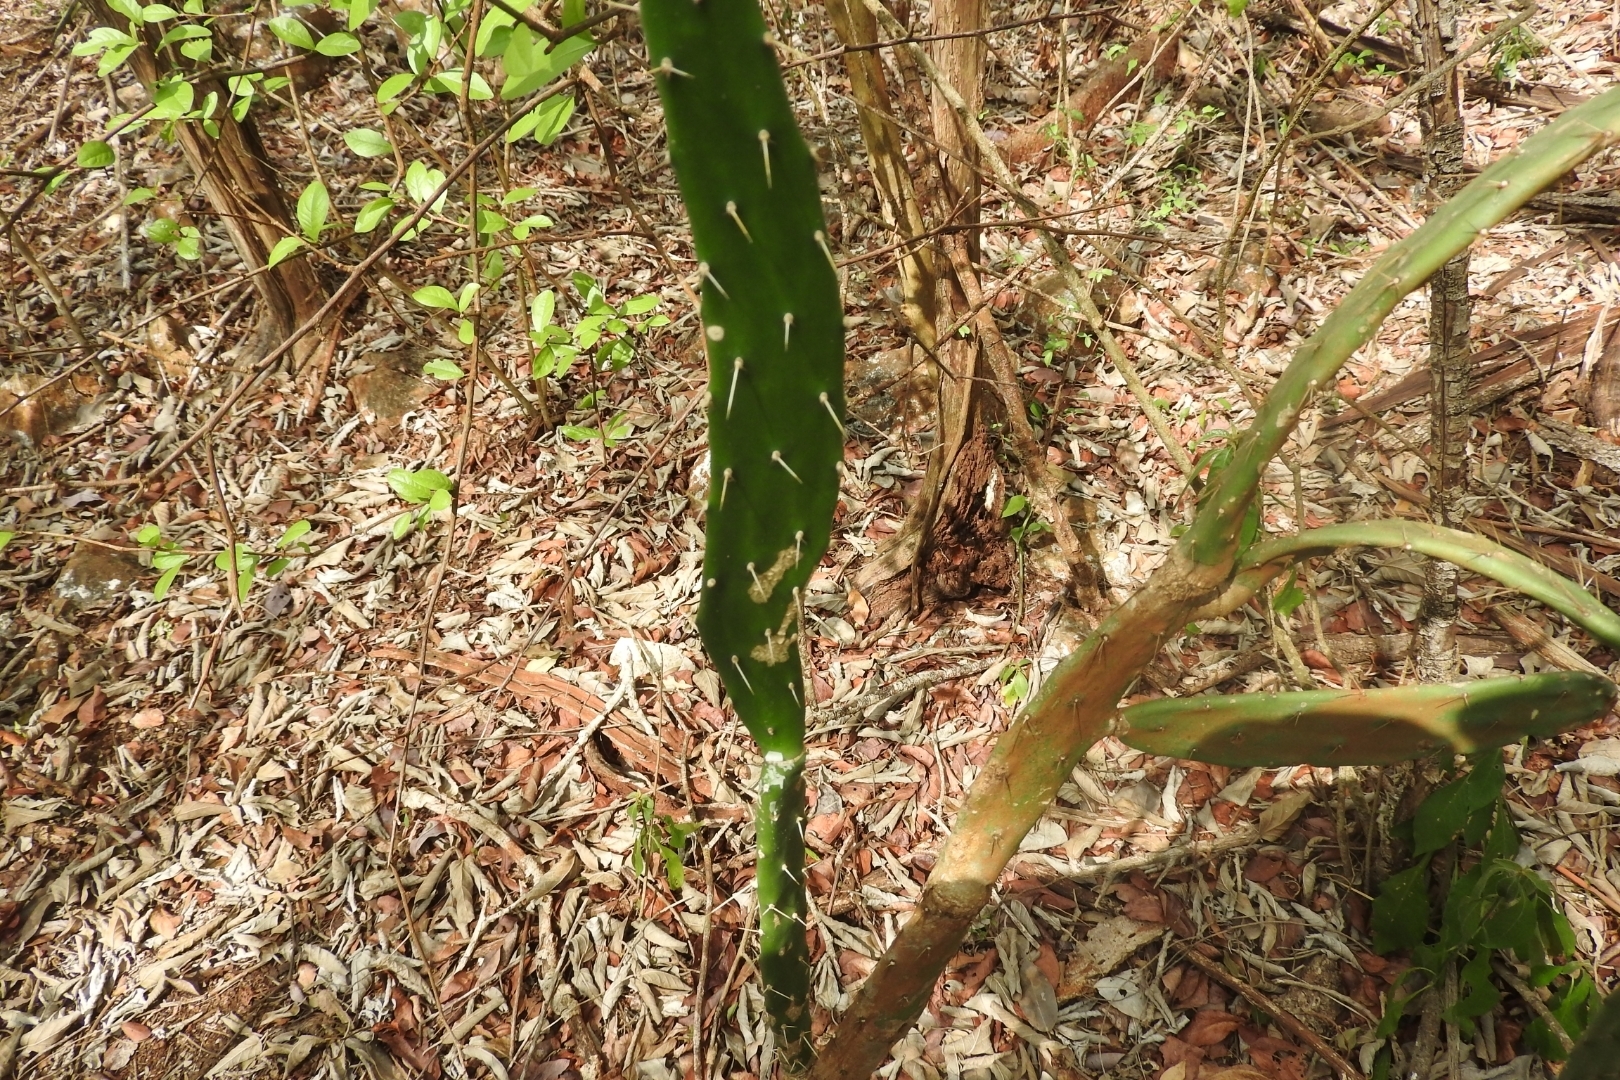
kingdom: Plantae
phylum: Tracheophyta
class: Magnoliopsida
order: Caryophyllales
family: Cactaceae
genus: Opuntia
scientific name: Opuntia inaperta
